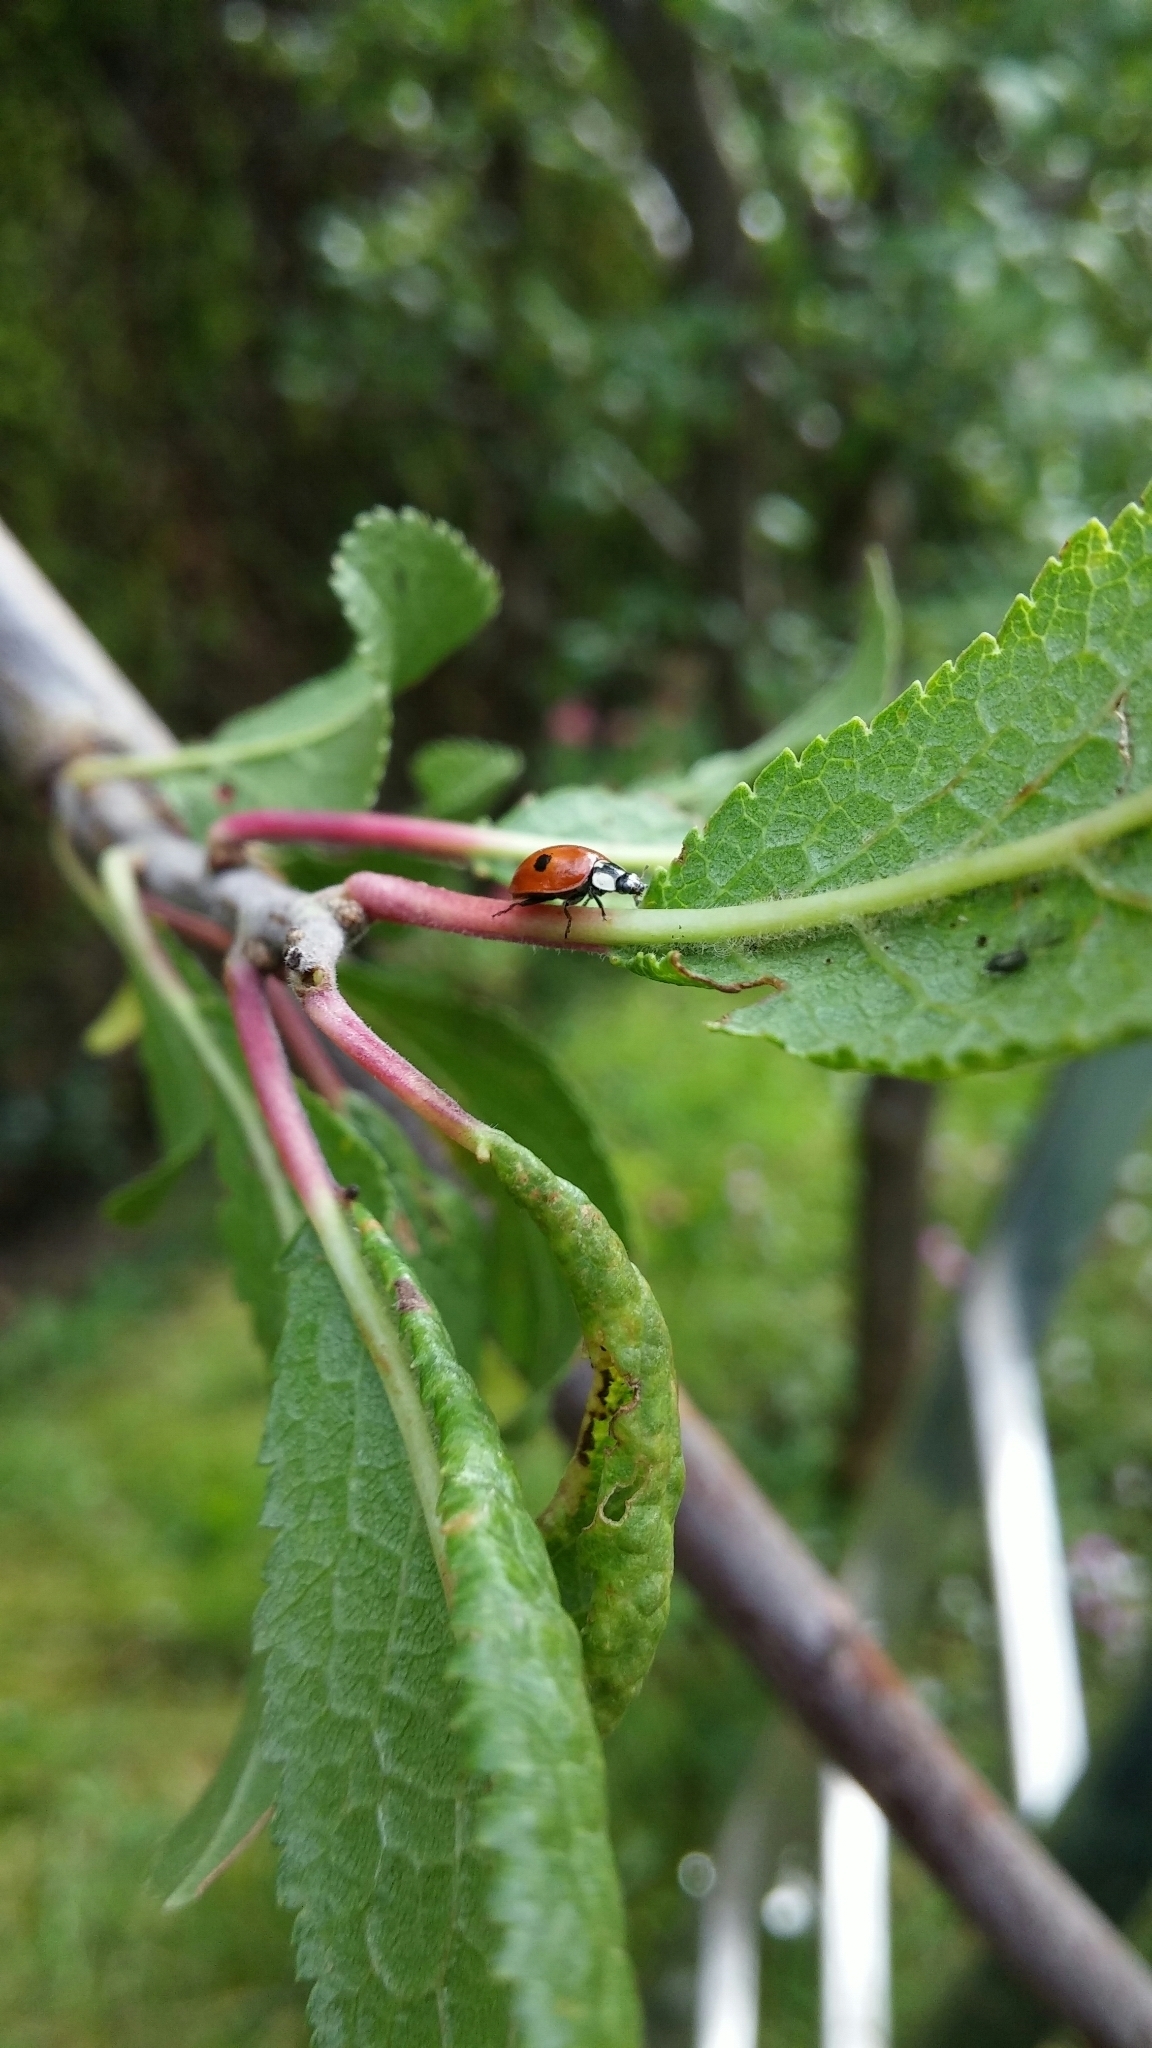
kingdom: Animalia
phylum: Arthropoda
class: Insecta
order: Coleoptera
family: Coccinellidae
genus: Adalia
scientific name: Adalia bipunctata
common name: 2-spot ladybird
